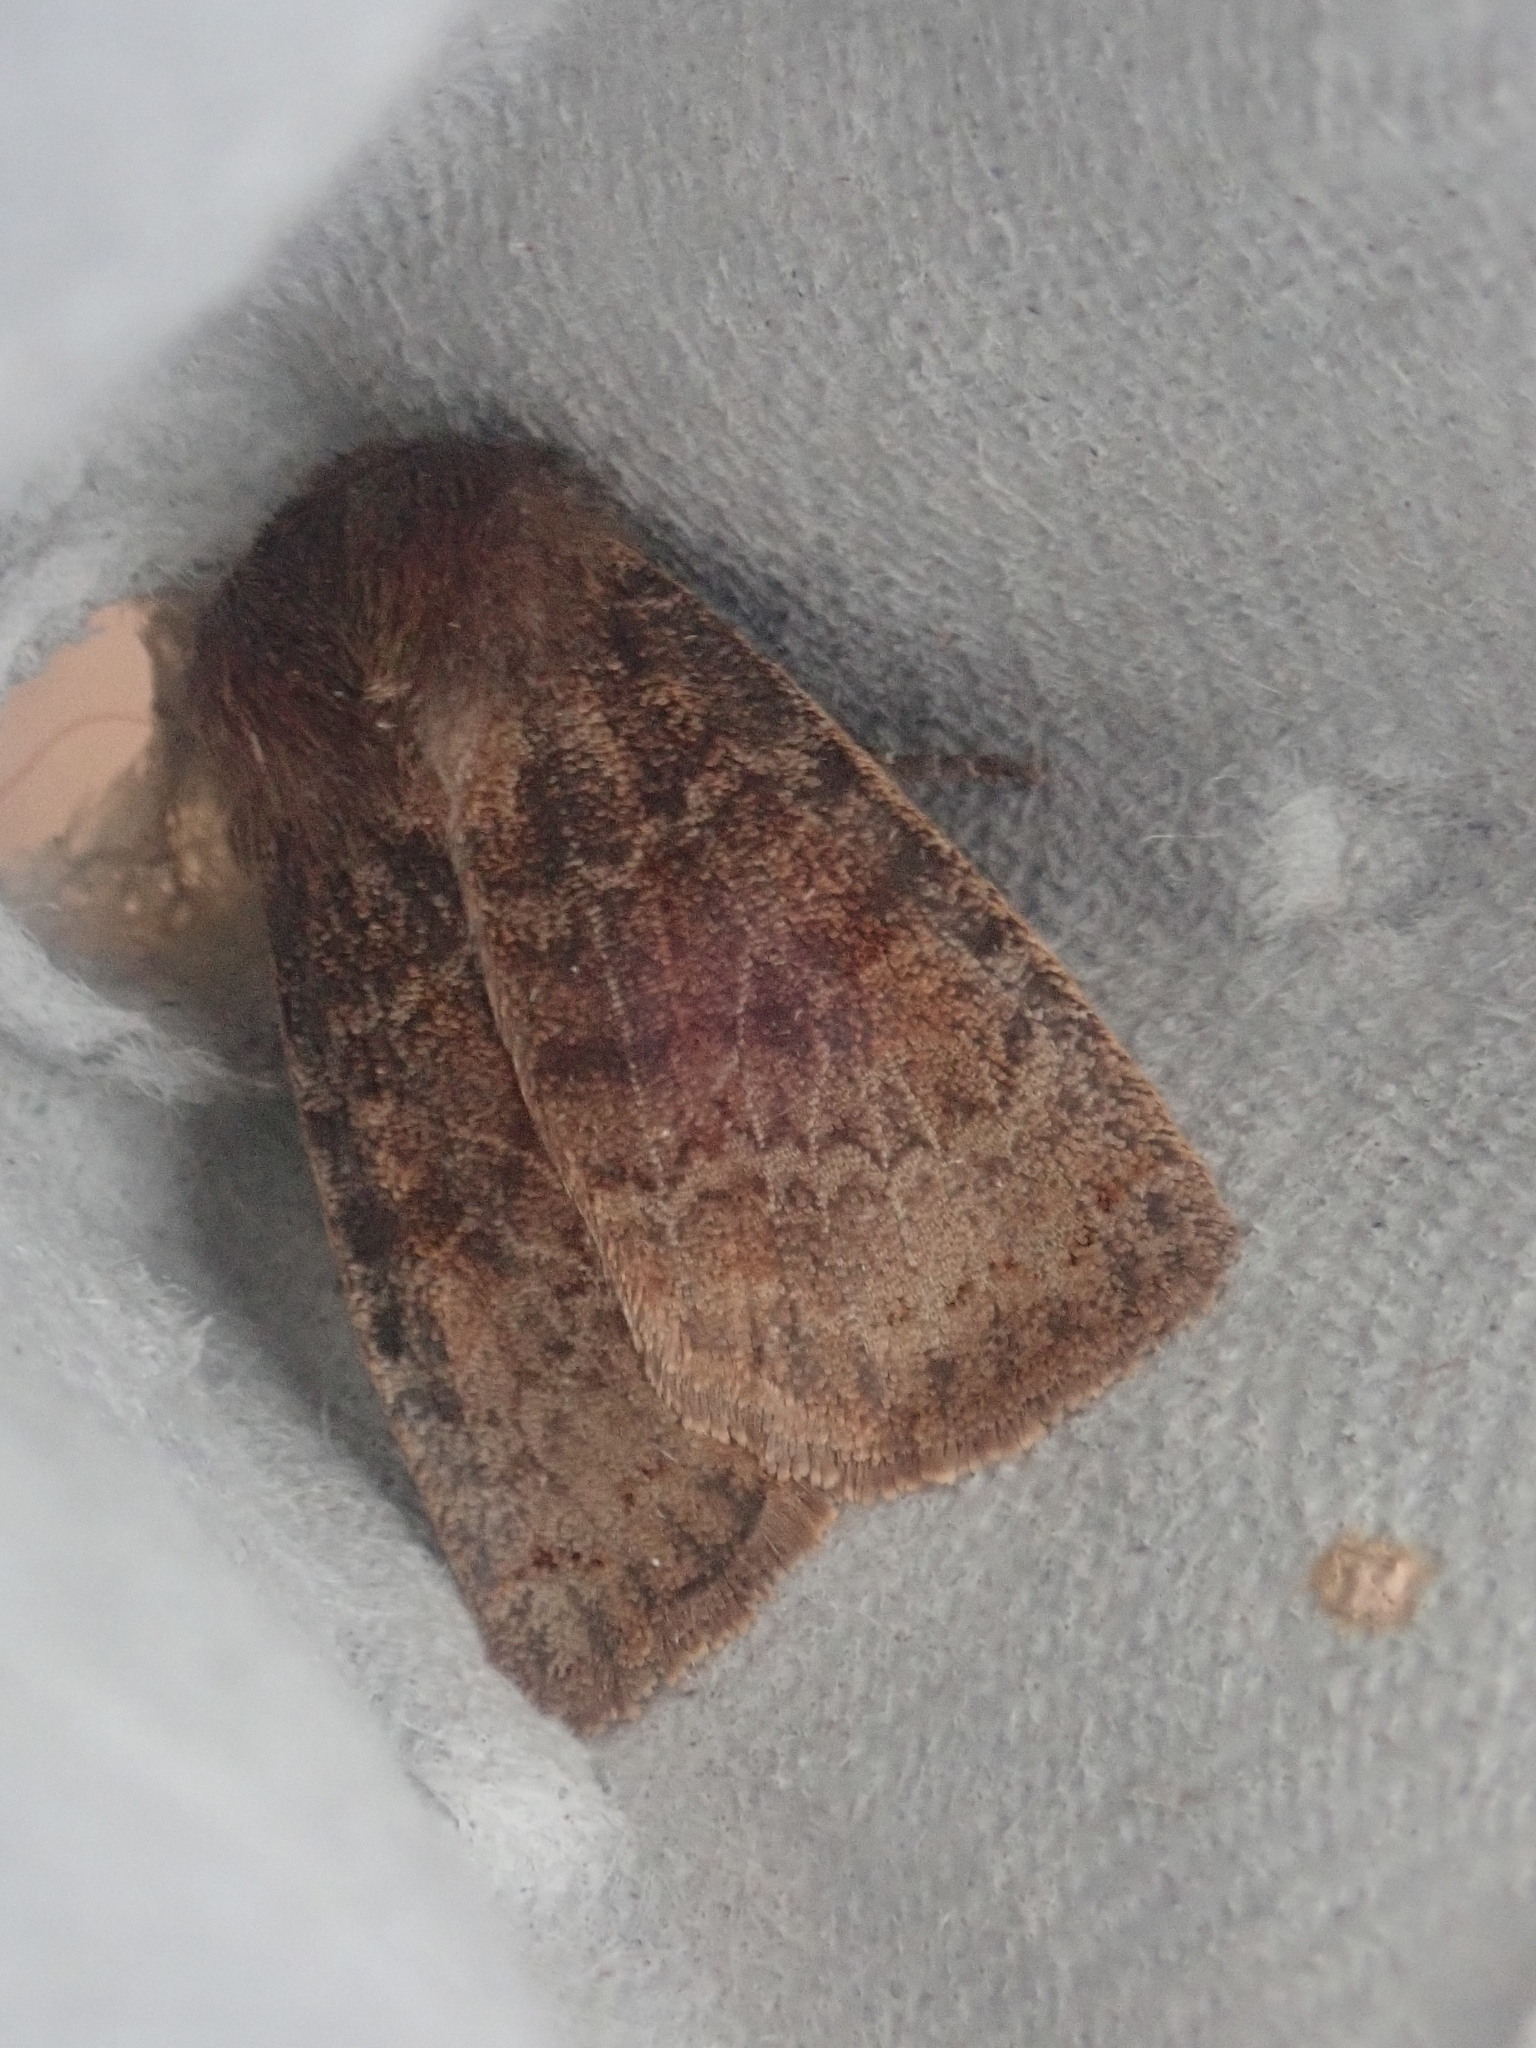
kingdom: Animalia
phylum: Arthropoda
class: Insecta
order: Lepidoptera
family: Noctuidae
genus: Homoglaea
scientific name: Homoglaea hircina
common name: Goat sallow
